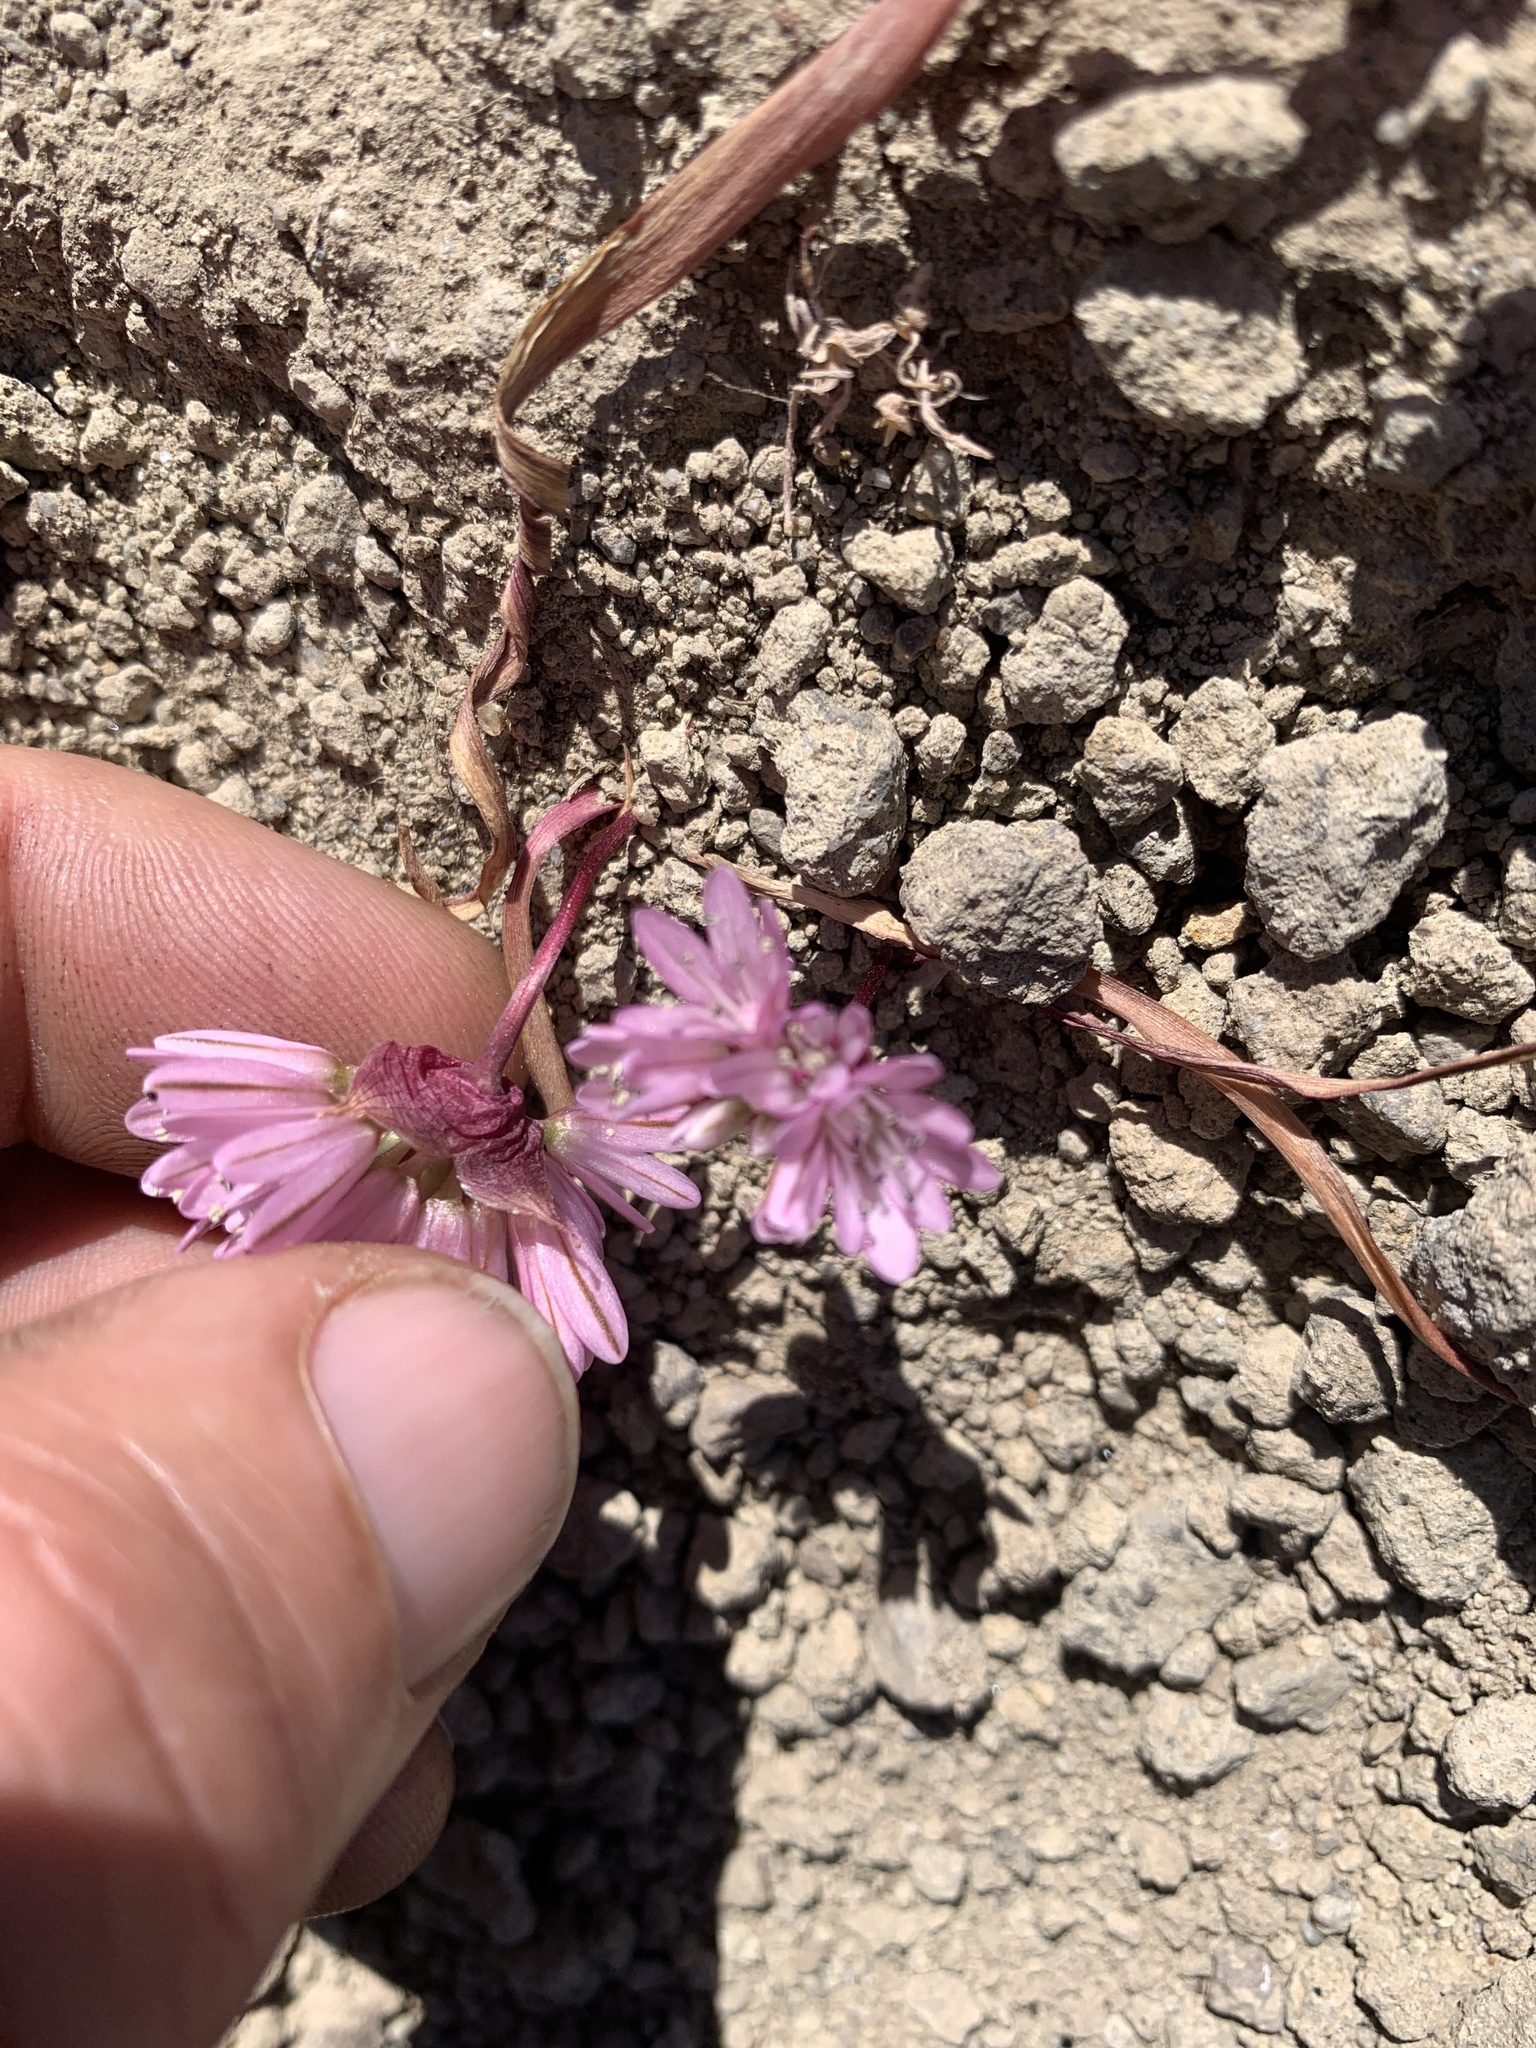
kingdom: Plantae
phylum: Tracheophyta
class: Liliopsida
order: Asparagales
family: Amaryllidaceae
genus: Allium
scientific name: Allium cratericola
